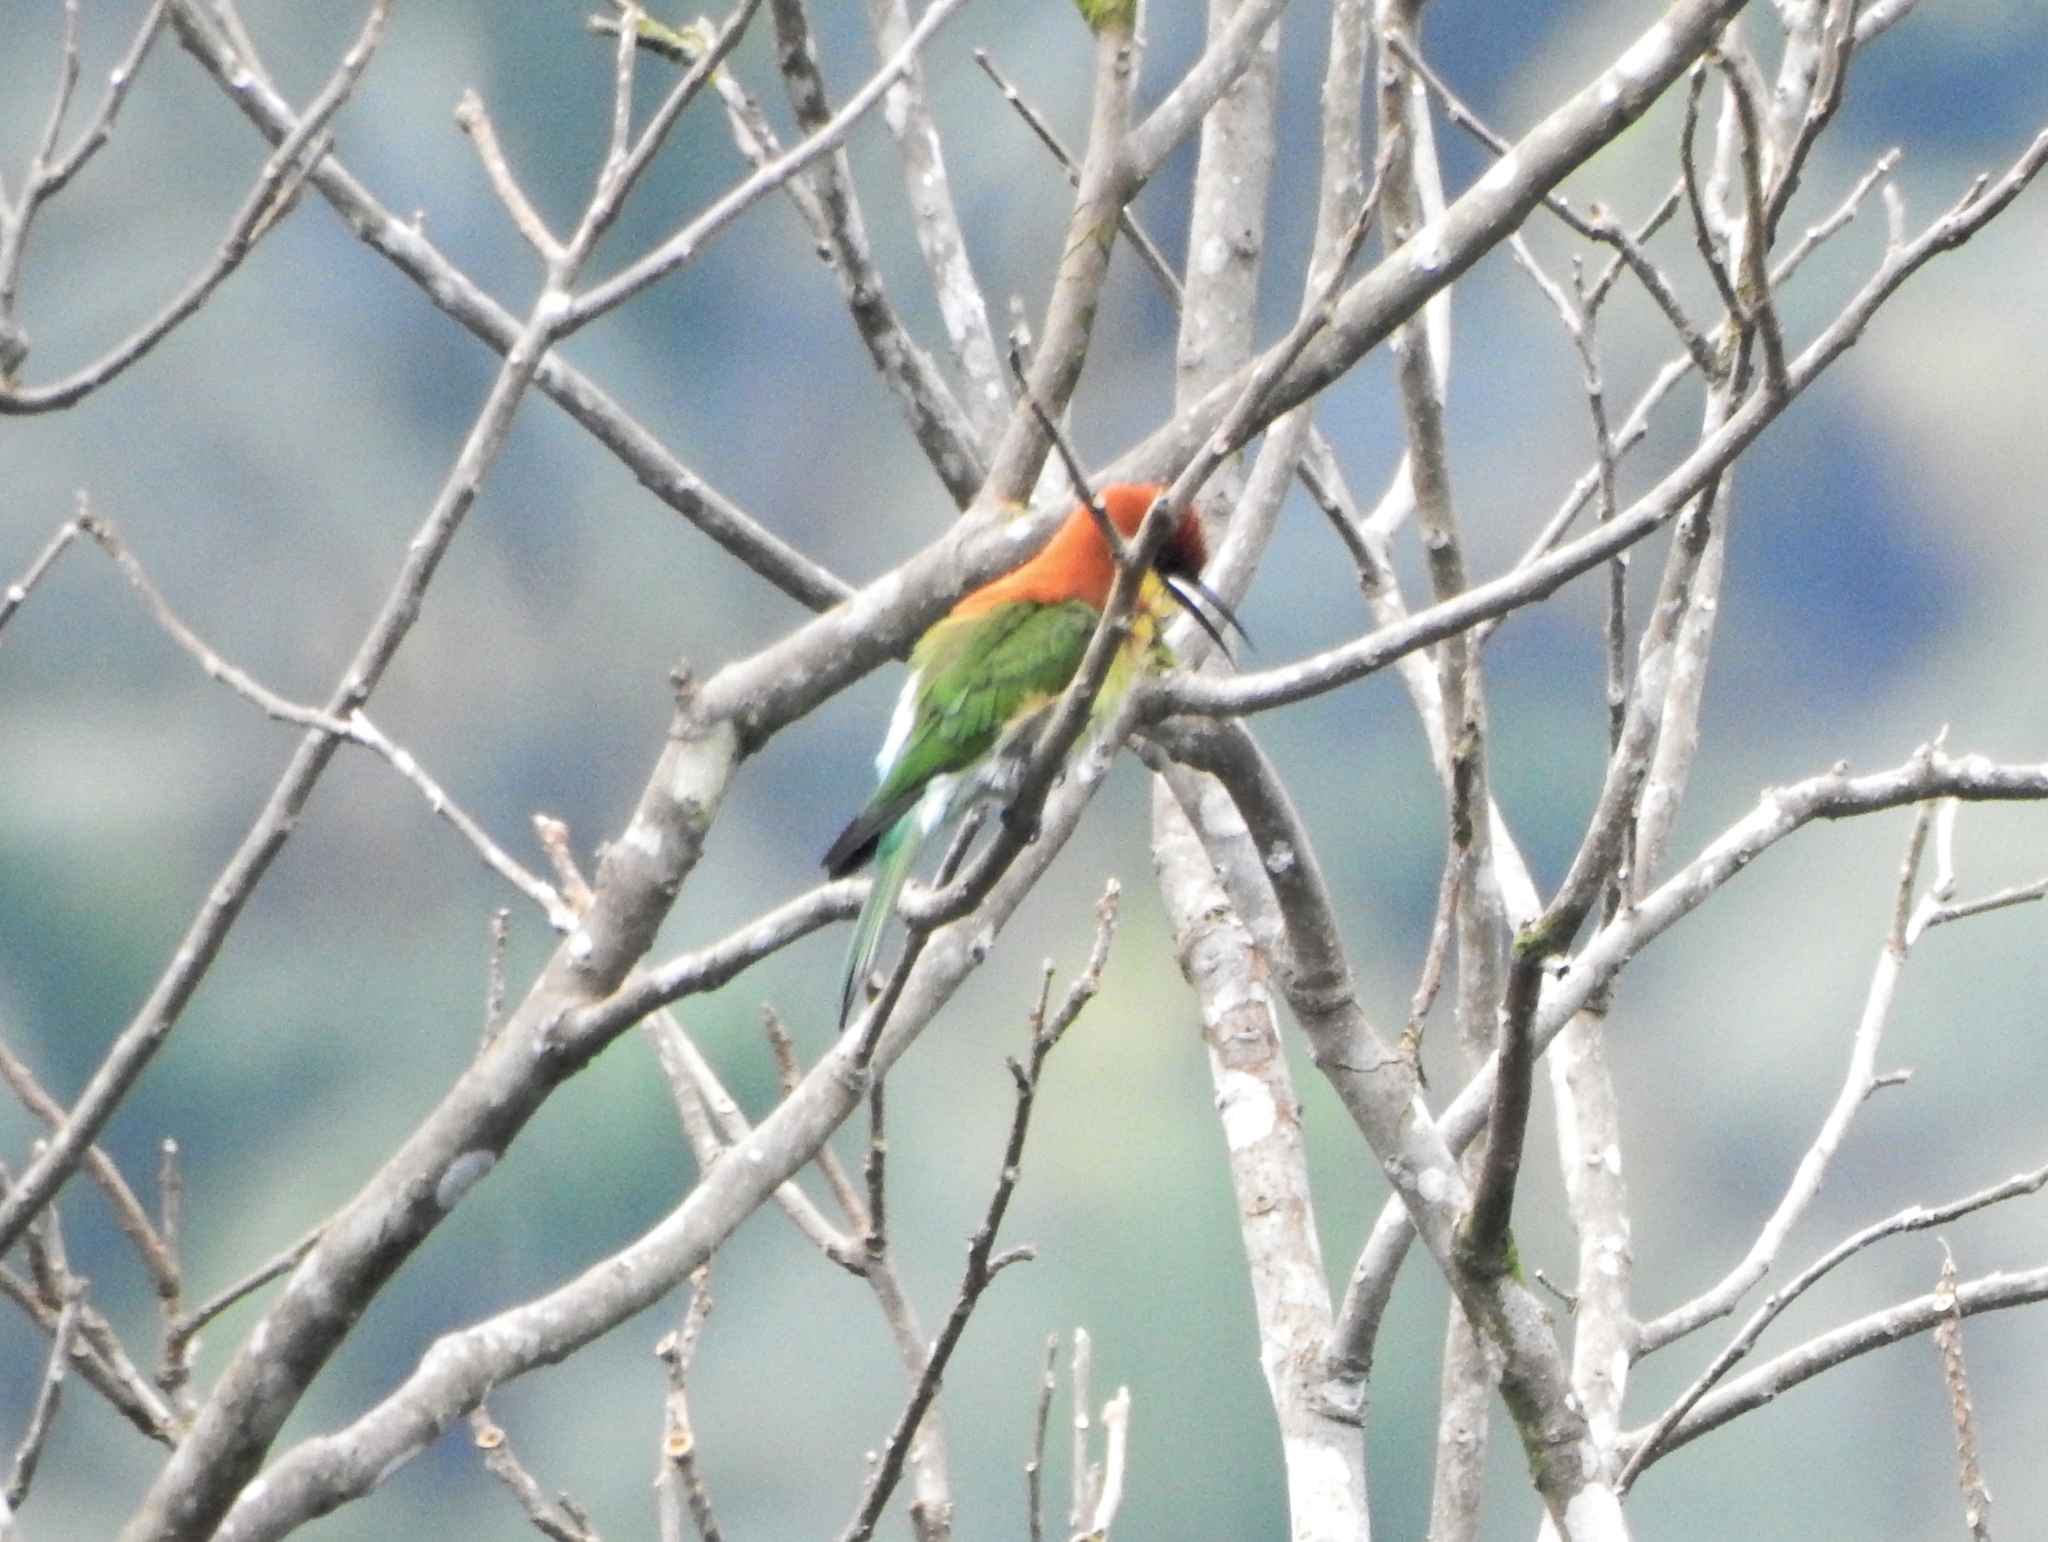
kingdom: Animalia
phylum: Chordata
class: Aves
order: Coraciiformes
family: Meropidae
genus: Merops
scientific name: Merops leschenaulti
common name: Chestnut-headed bee-eater
